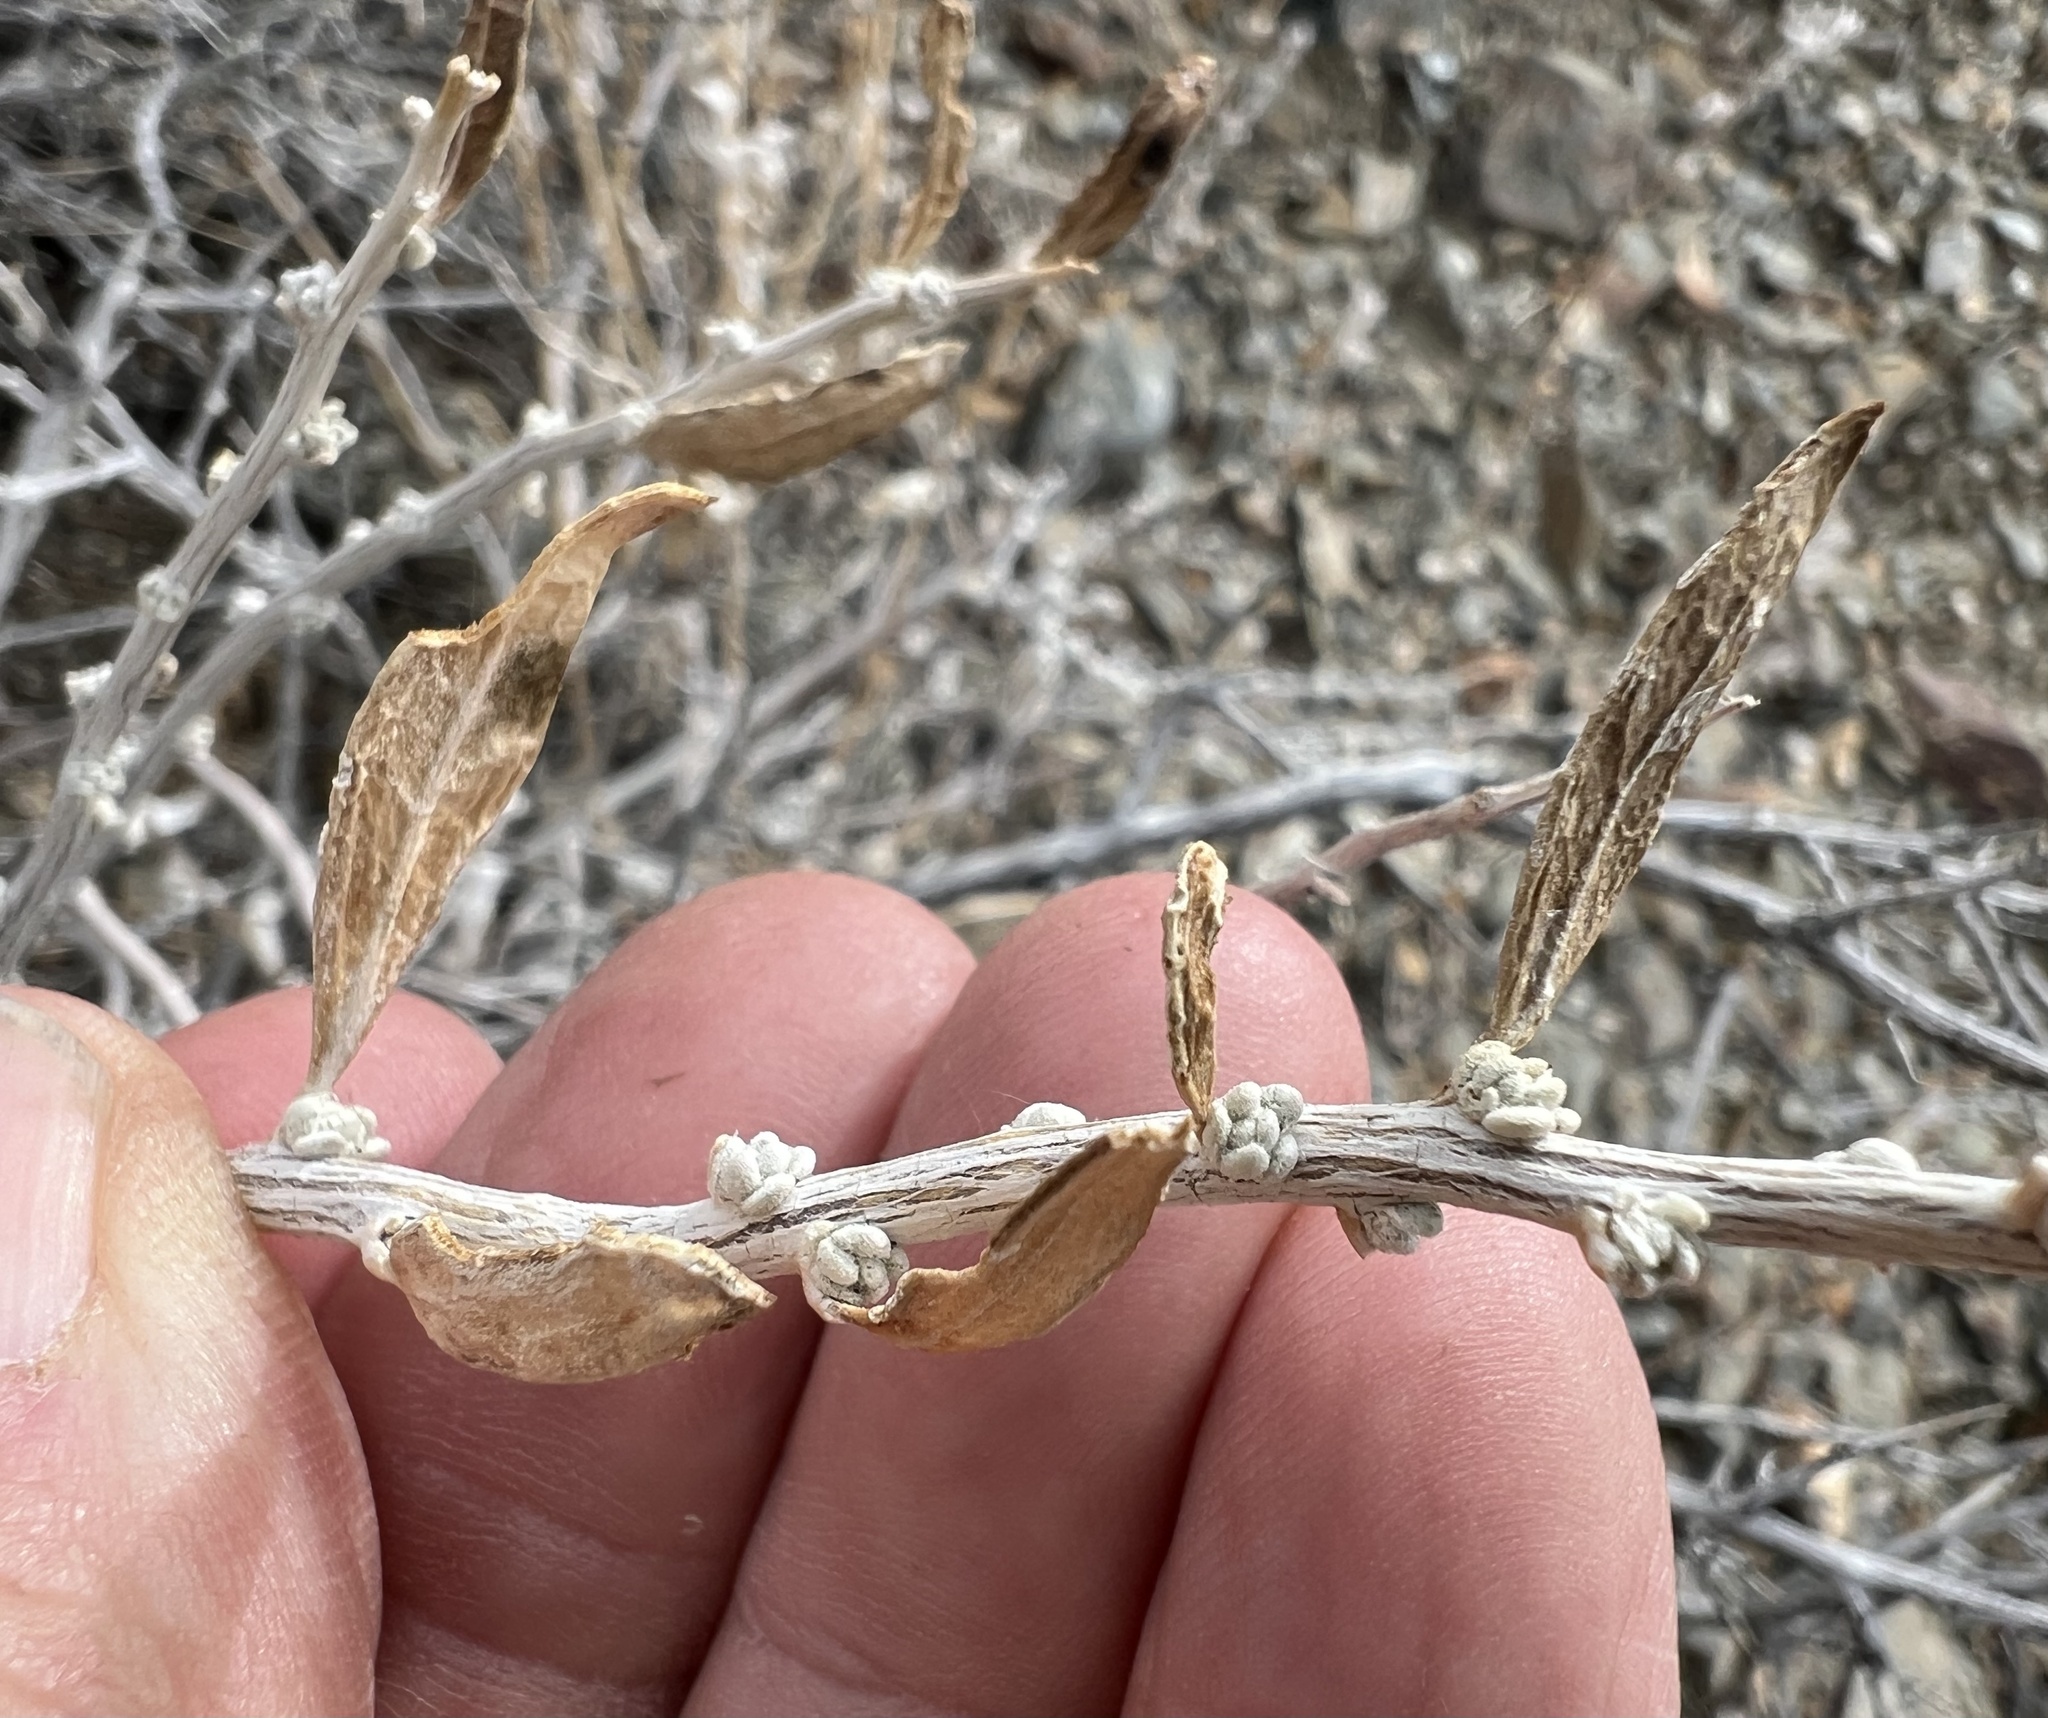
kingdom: Plantae
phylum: Tracheophyta
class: Magnoliopsida
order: Caryophyllales
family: Amaranthaceae
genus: Grayia
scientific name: Grayia spinosa
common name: Spiny hopsage
